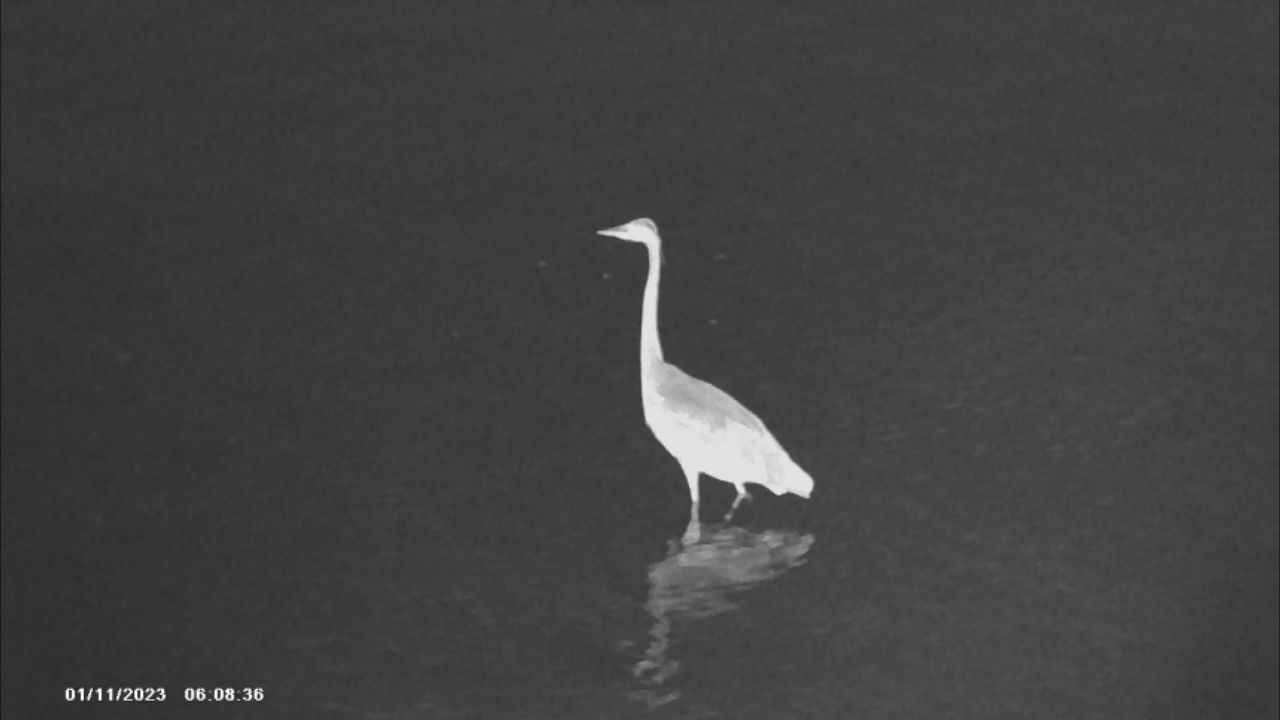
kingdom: Animalia
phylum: Chordata
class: Aves
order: Pelecaniformes
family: Ardeidae
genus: Ardea
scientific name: Ardea herodias
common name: Great blue heron
